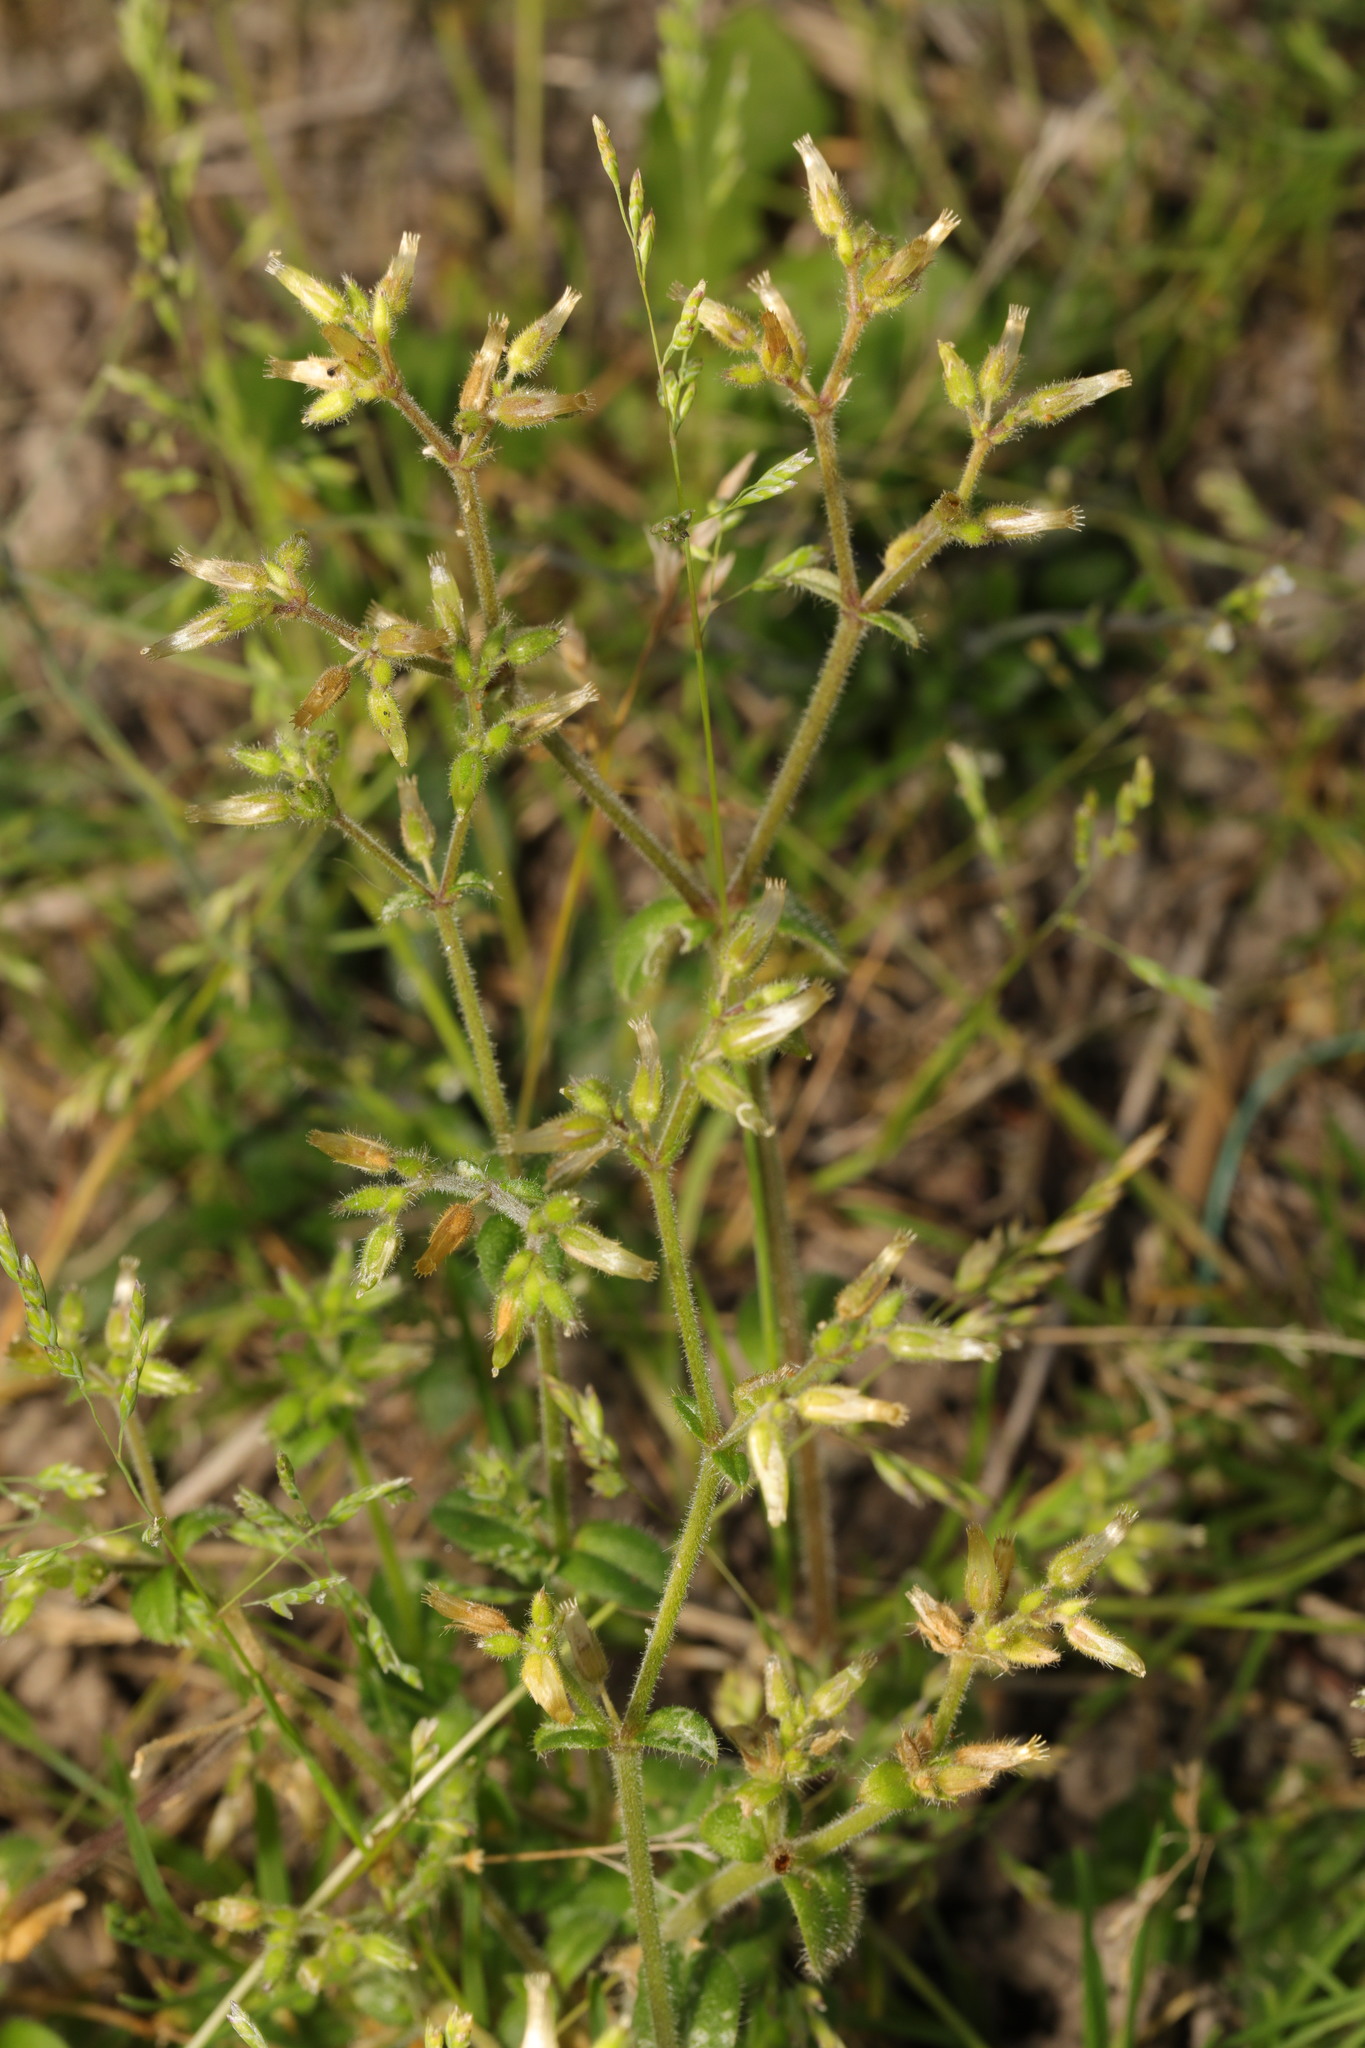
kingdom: Plantae
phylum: Tracheophyta
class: Magnoliopsida
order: Caryophyllales
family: Caryophyllaceae
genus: Cerastium
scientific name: Cerastium glomeratum
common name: Sticky chickweed
